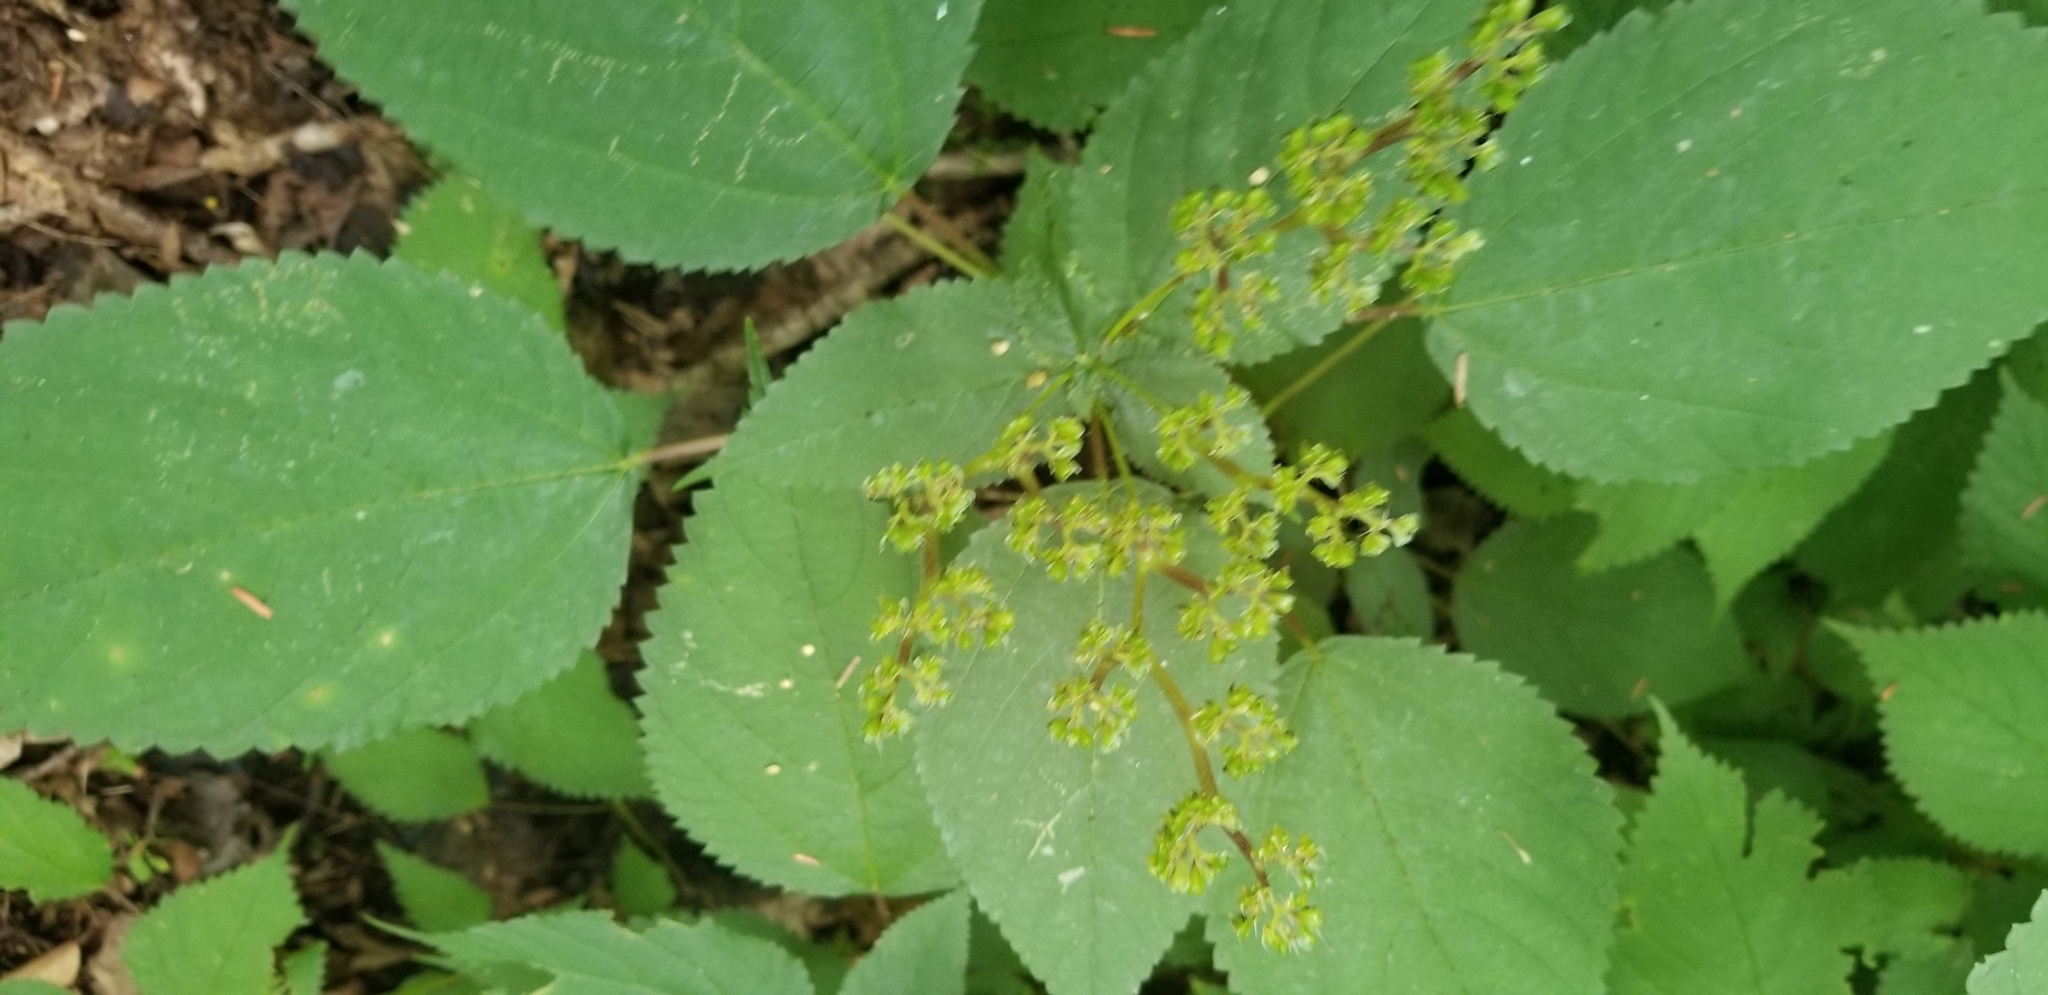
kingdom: Plantae
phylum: Tracheophyta
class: Magnoliopsida
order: Rosales
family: Urticaceae
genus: Laportea
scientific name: Laportea canadensis
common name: Canada nettle
